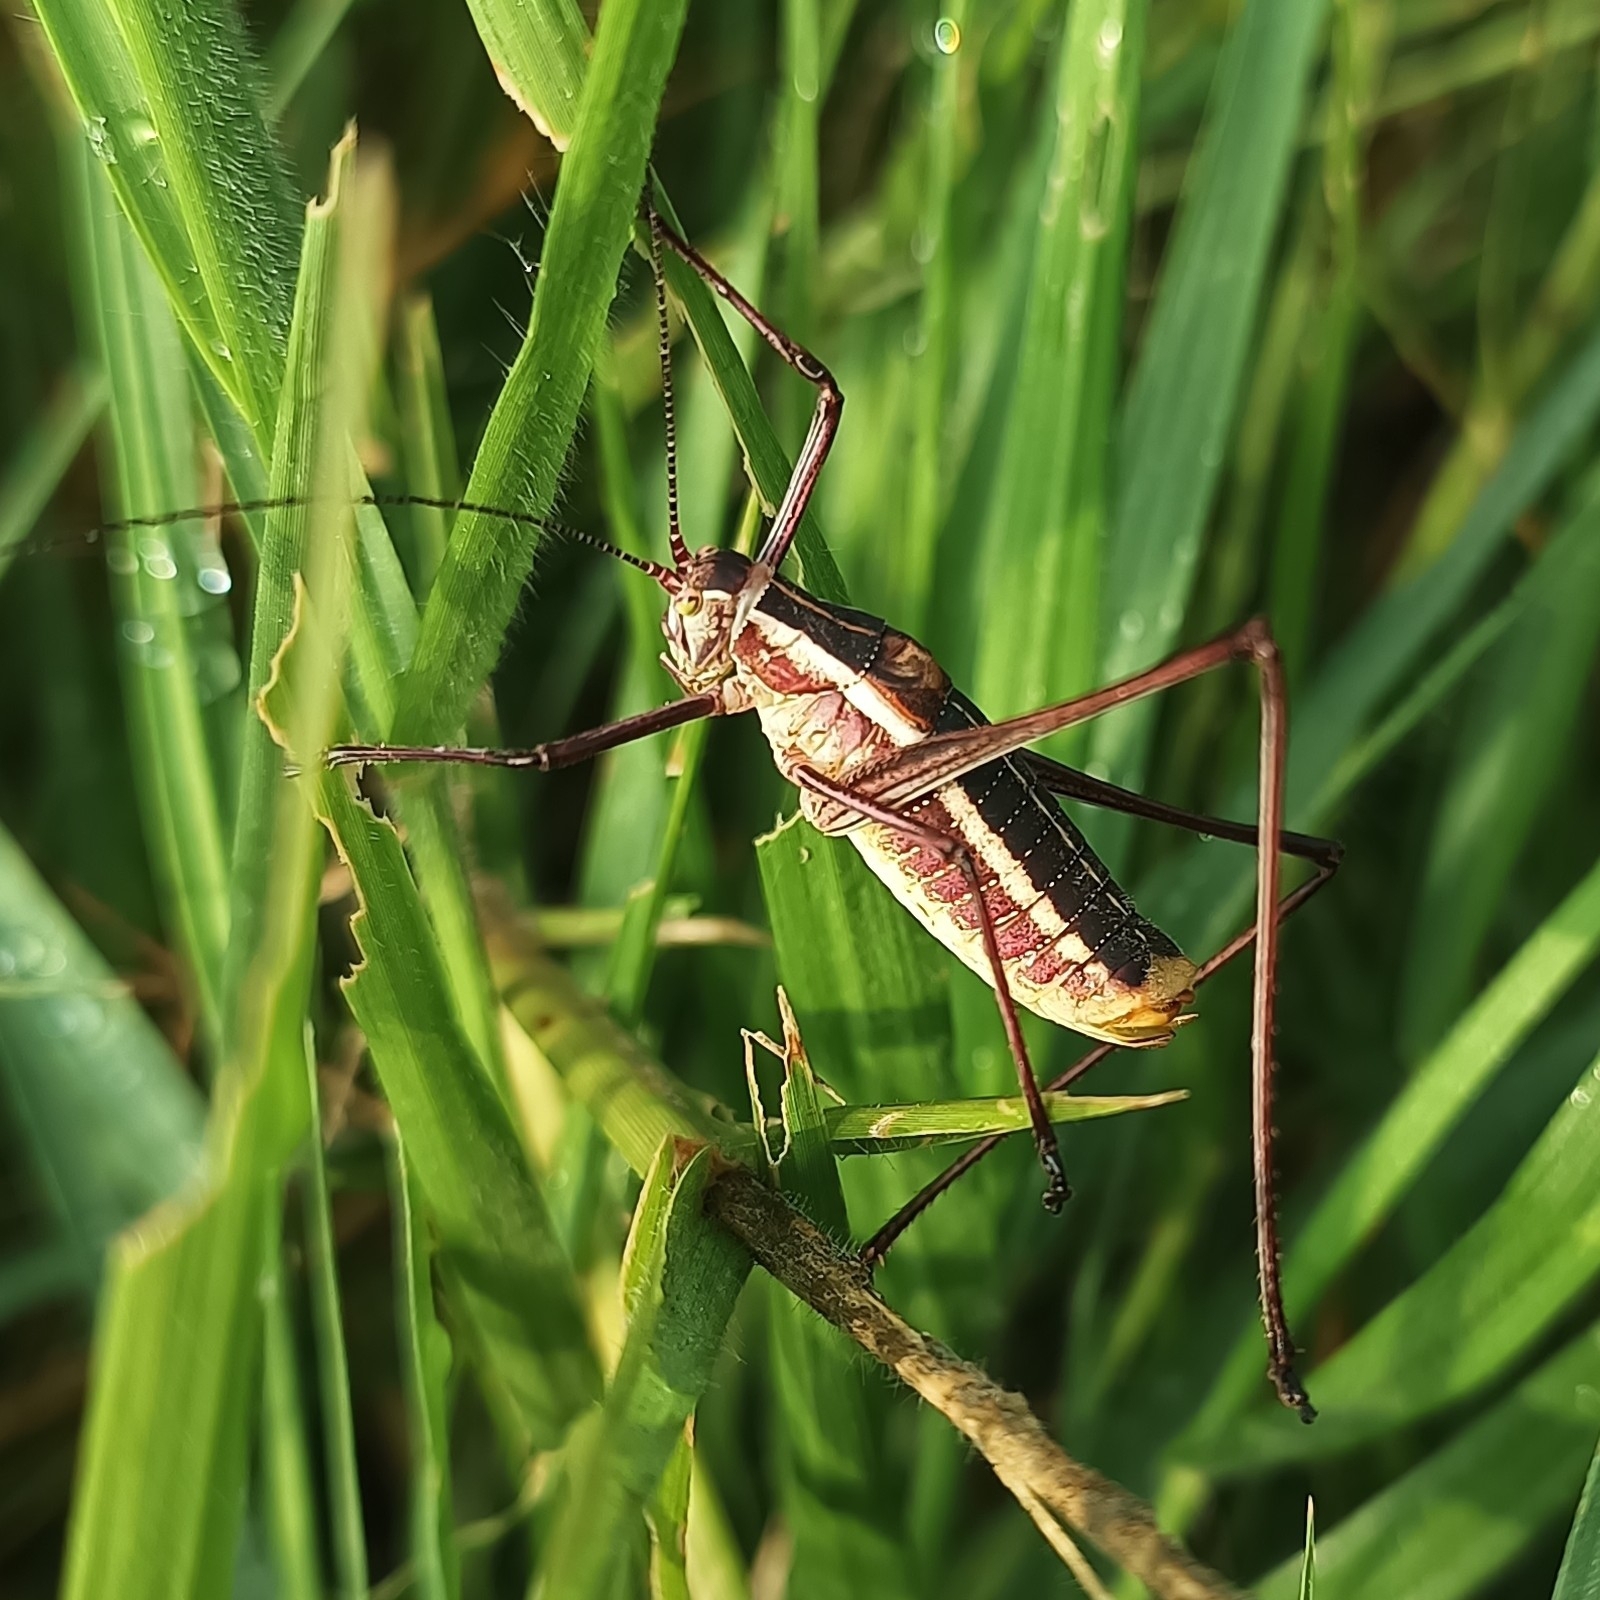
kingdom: Animalia
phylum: Arthropoda
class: Insecta
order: Orthoptera
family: Tettigoniidae
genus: Obolopteryx
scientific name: Obolopteryx brevihastata
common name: Common short-winged katydid
